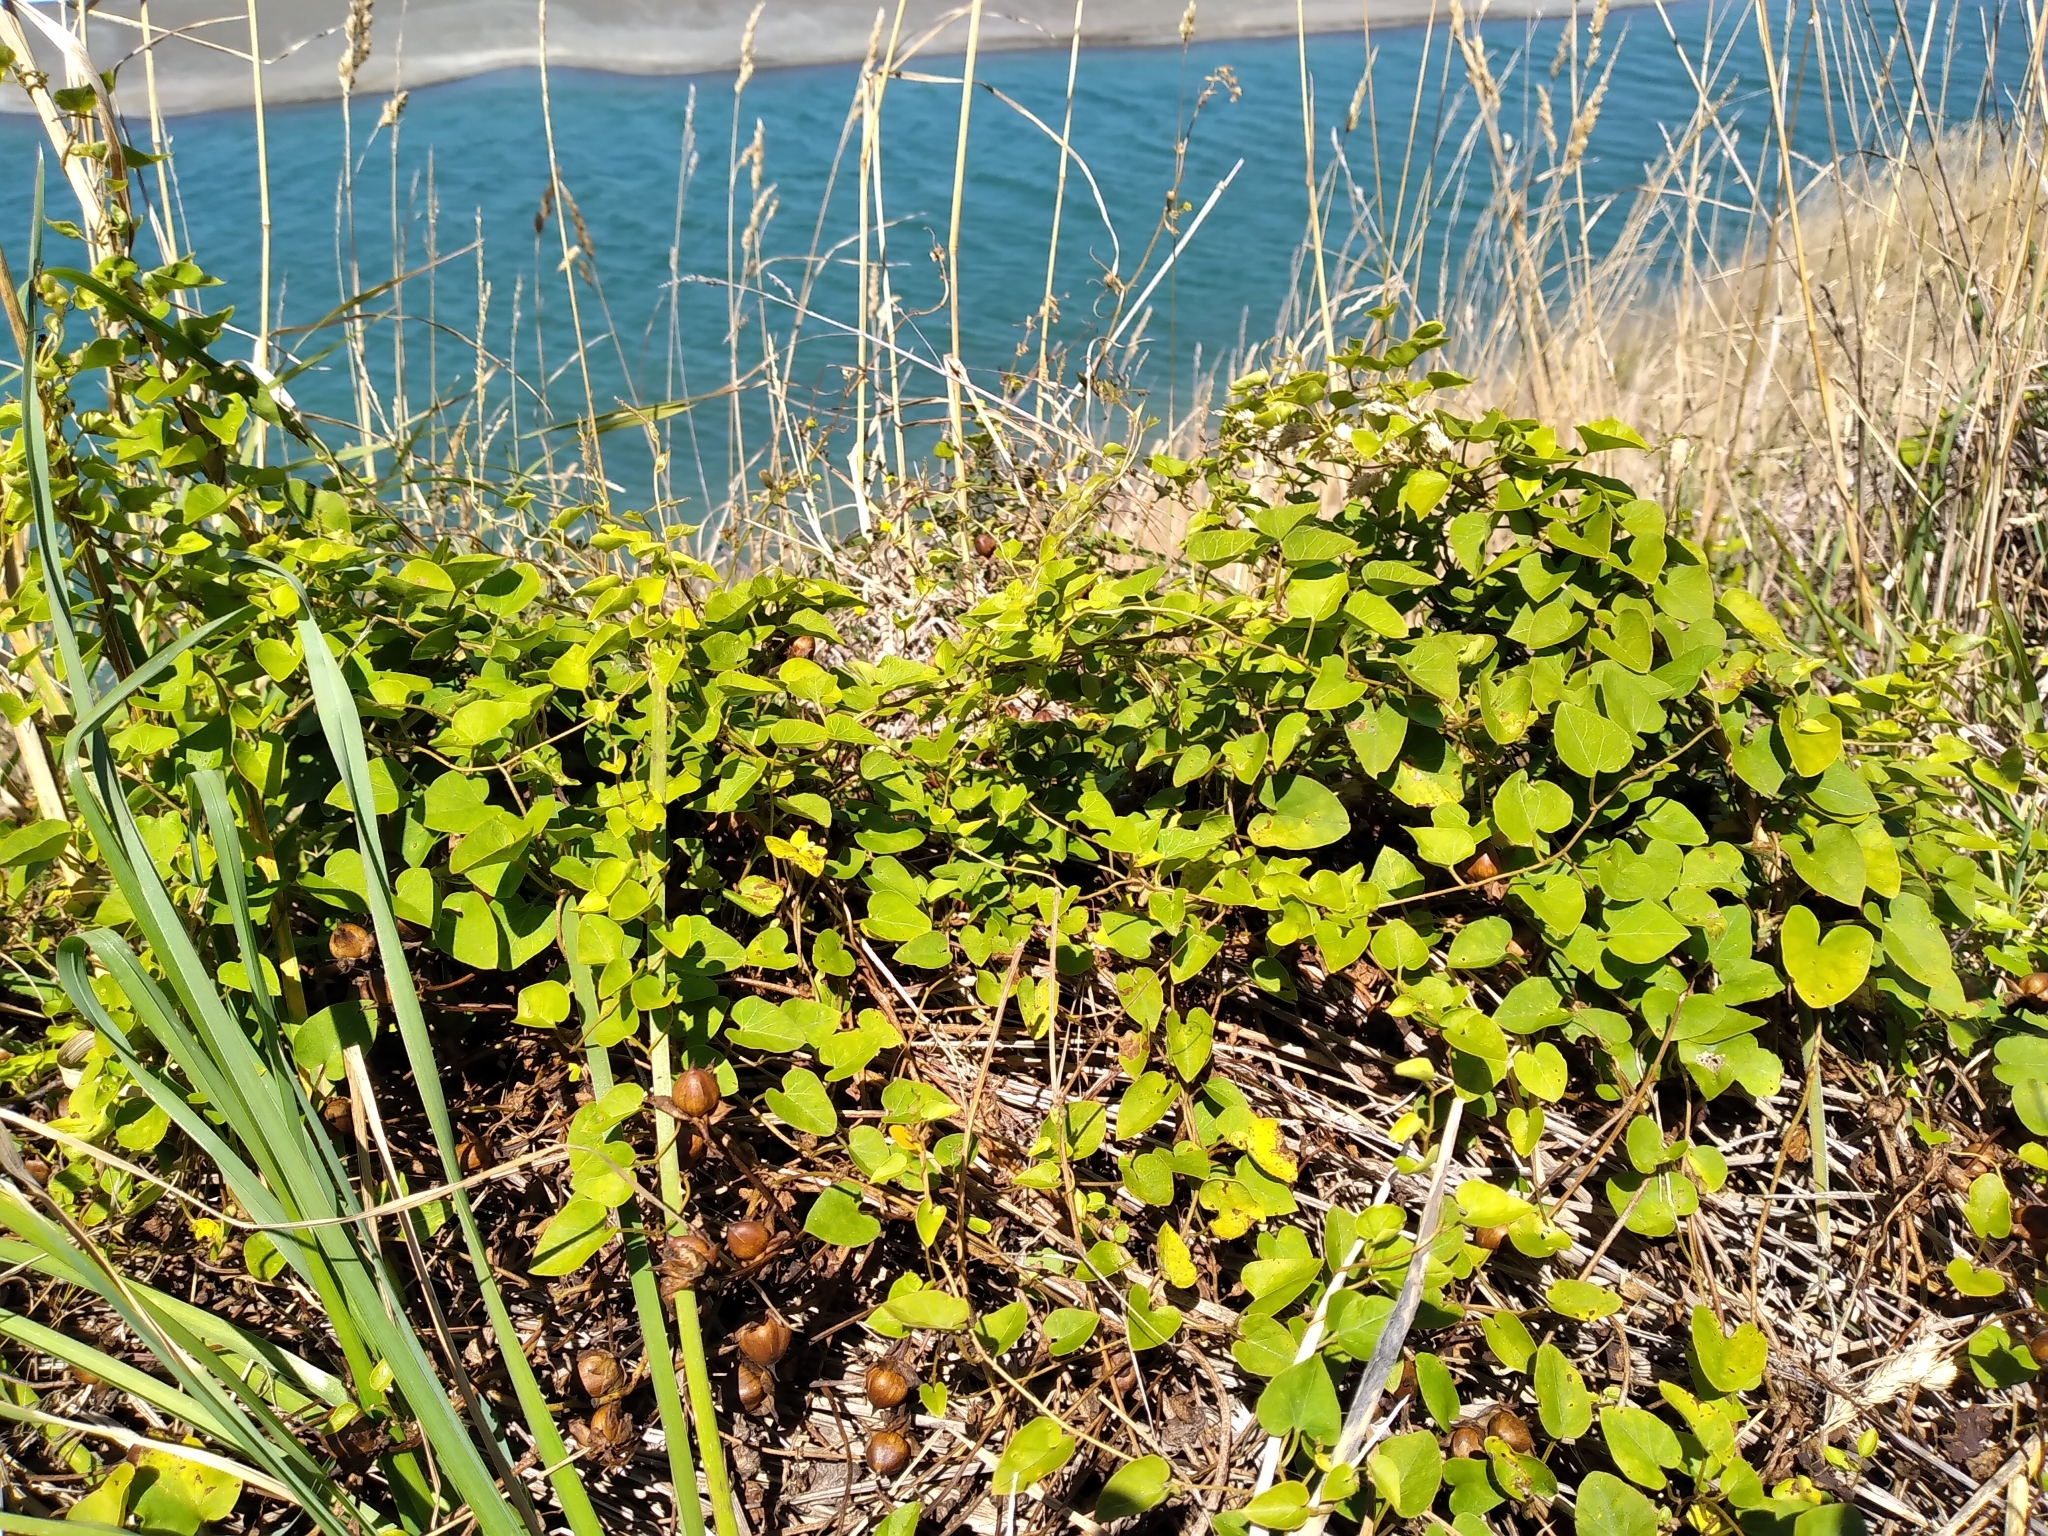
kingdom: Plantae
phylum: Tracheophyta
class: Magnoliopsida
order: Solanales
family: Convolvulaceae
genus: Calystegia
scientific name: Calystegia tuguriorum
